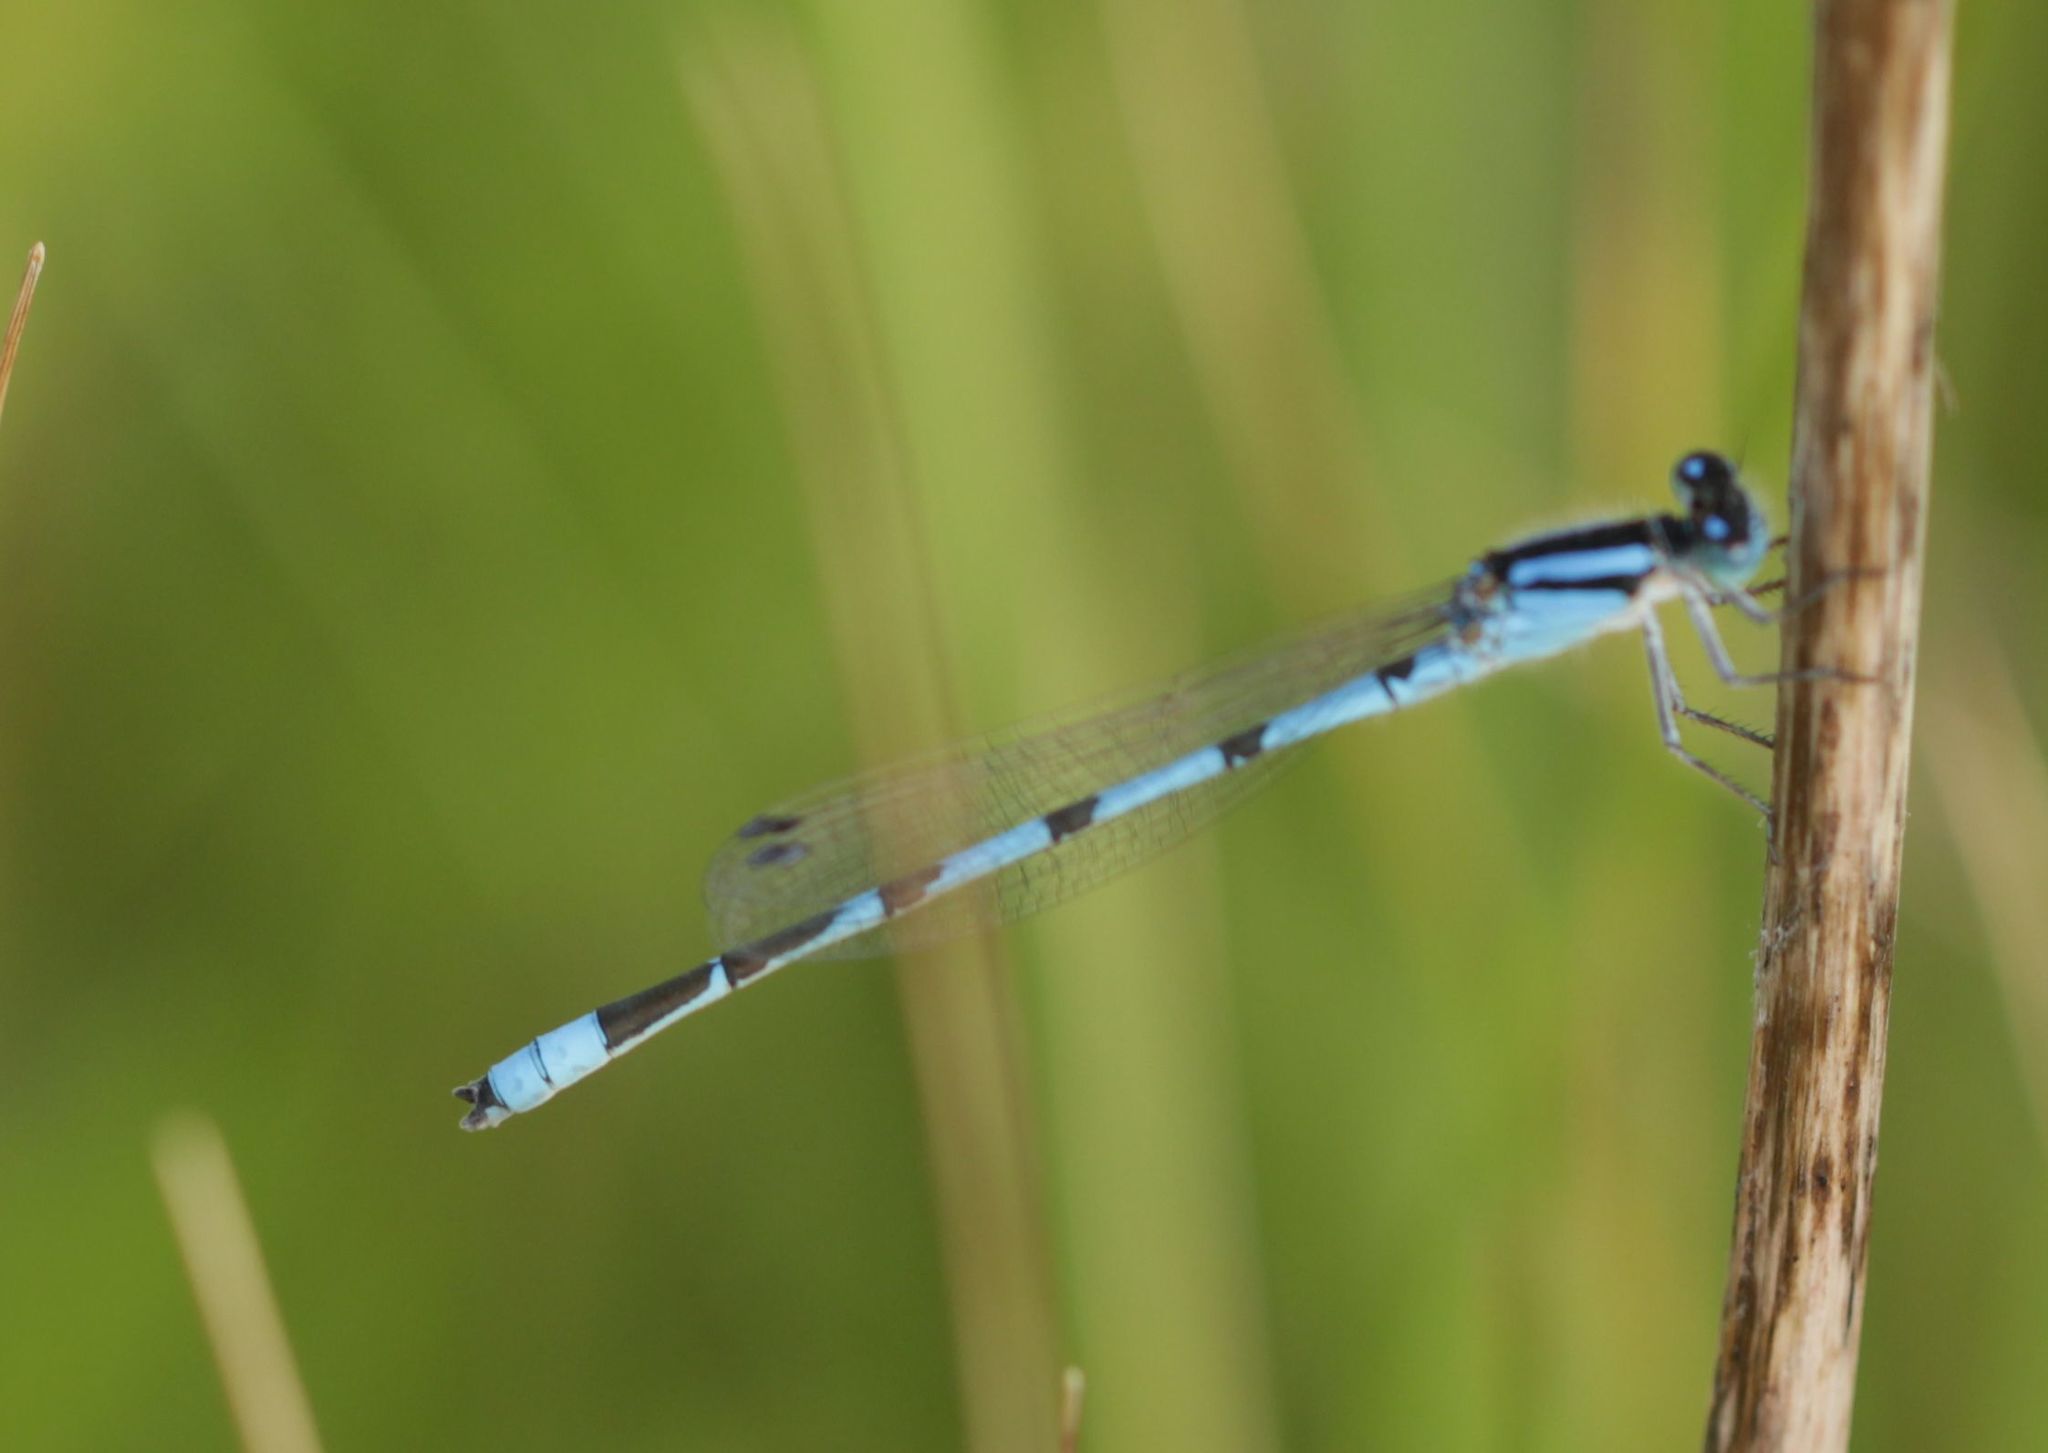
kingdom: Animalia
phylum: Arthropoda
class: Insecta
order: Odonata
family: Coenagrionidae
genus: Enallagma
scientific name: Enallagma civile
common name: Damselfly
